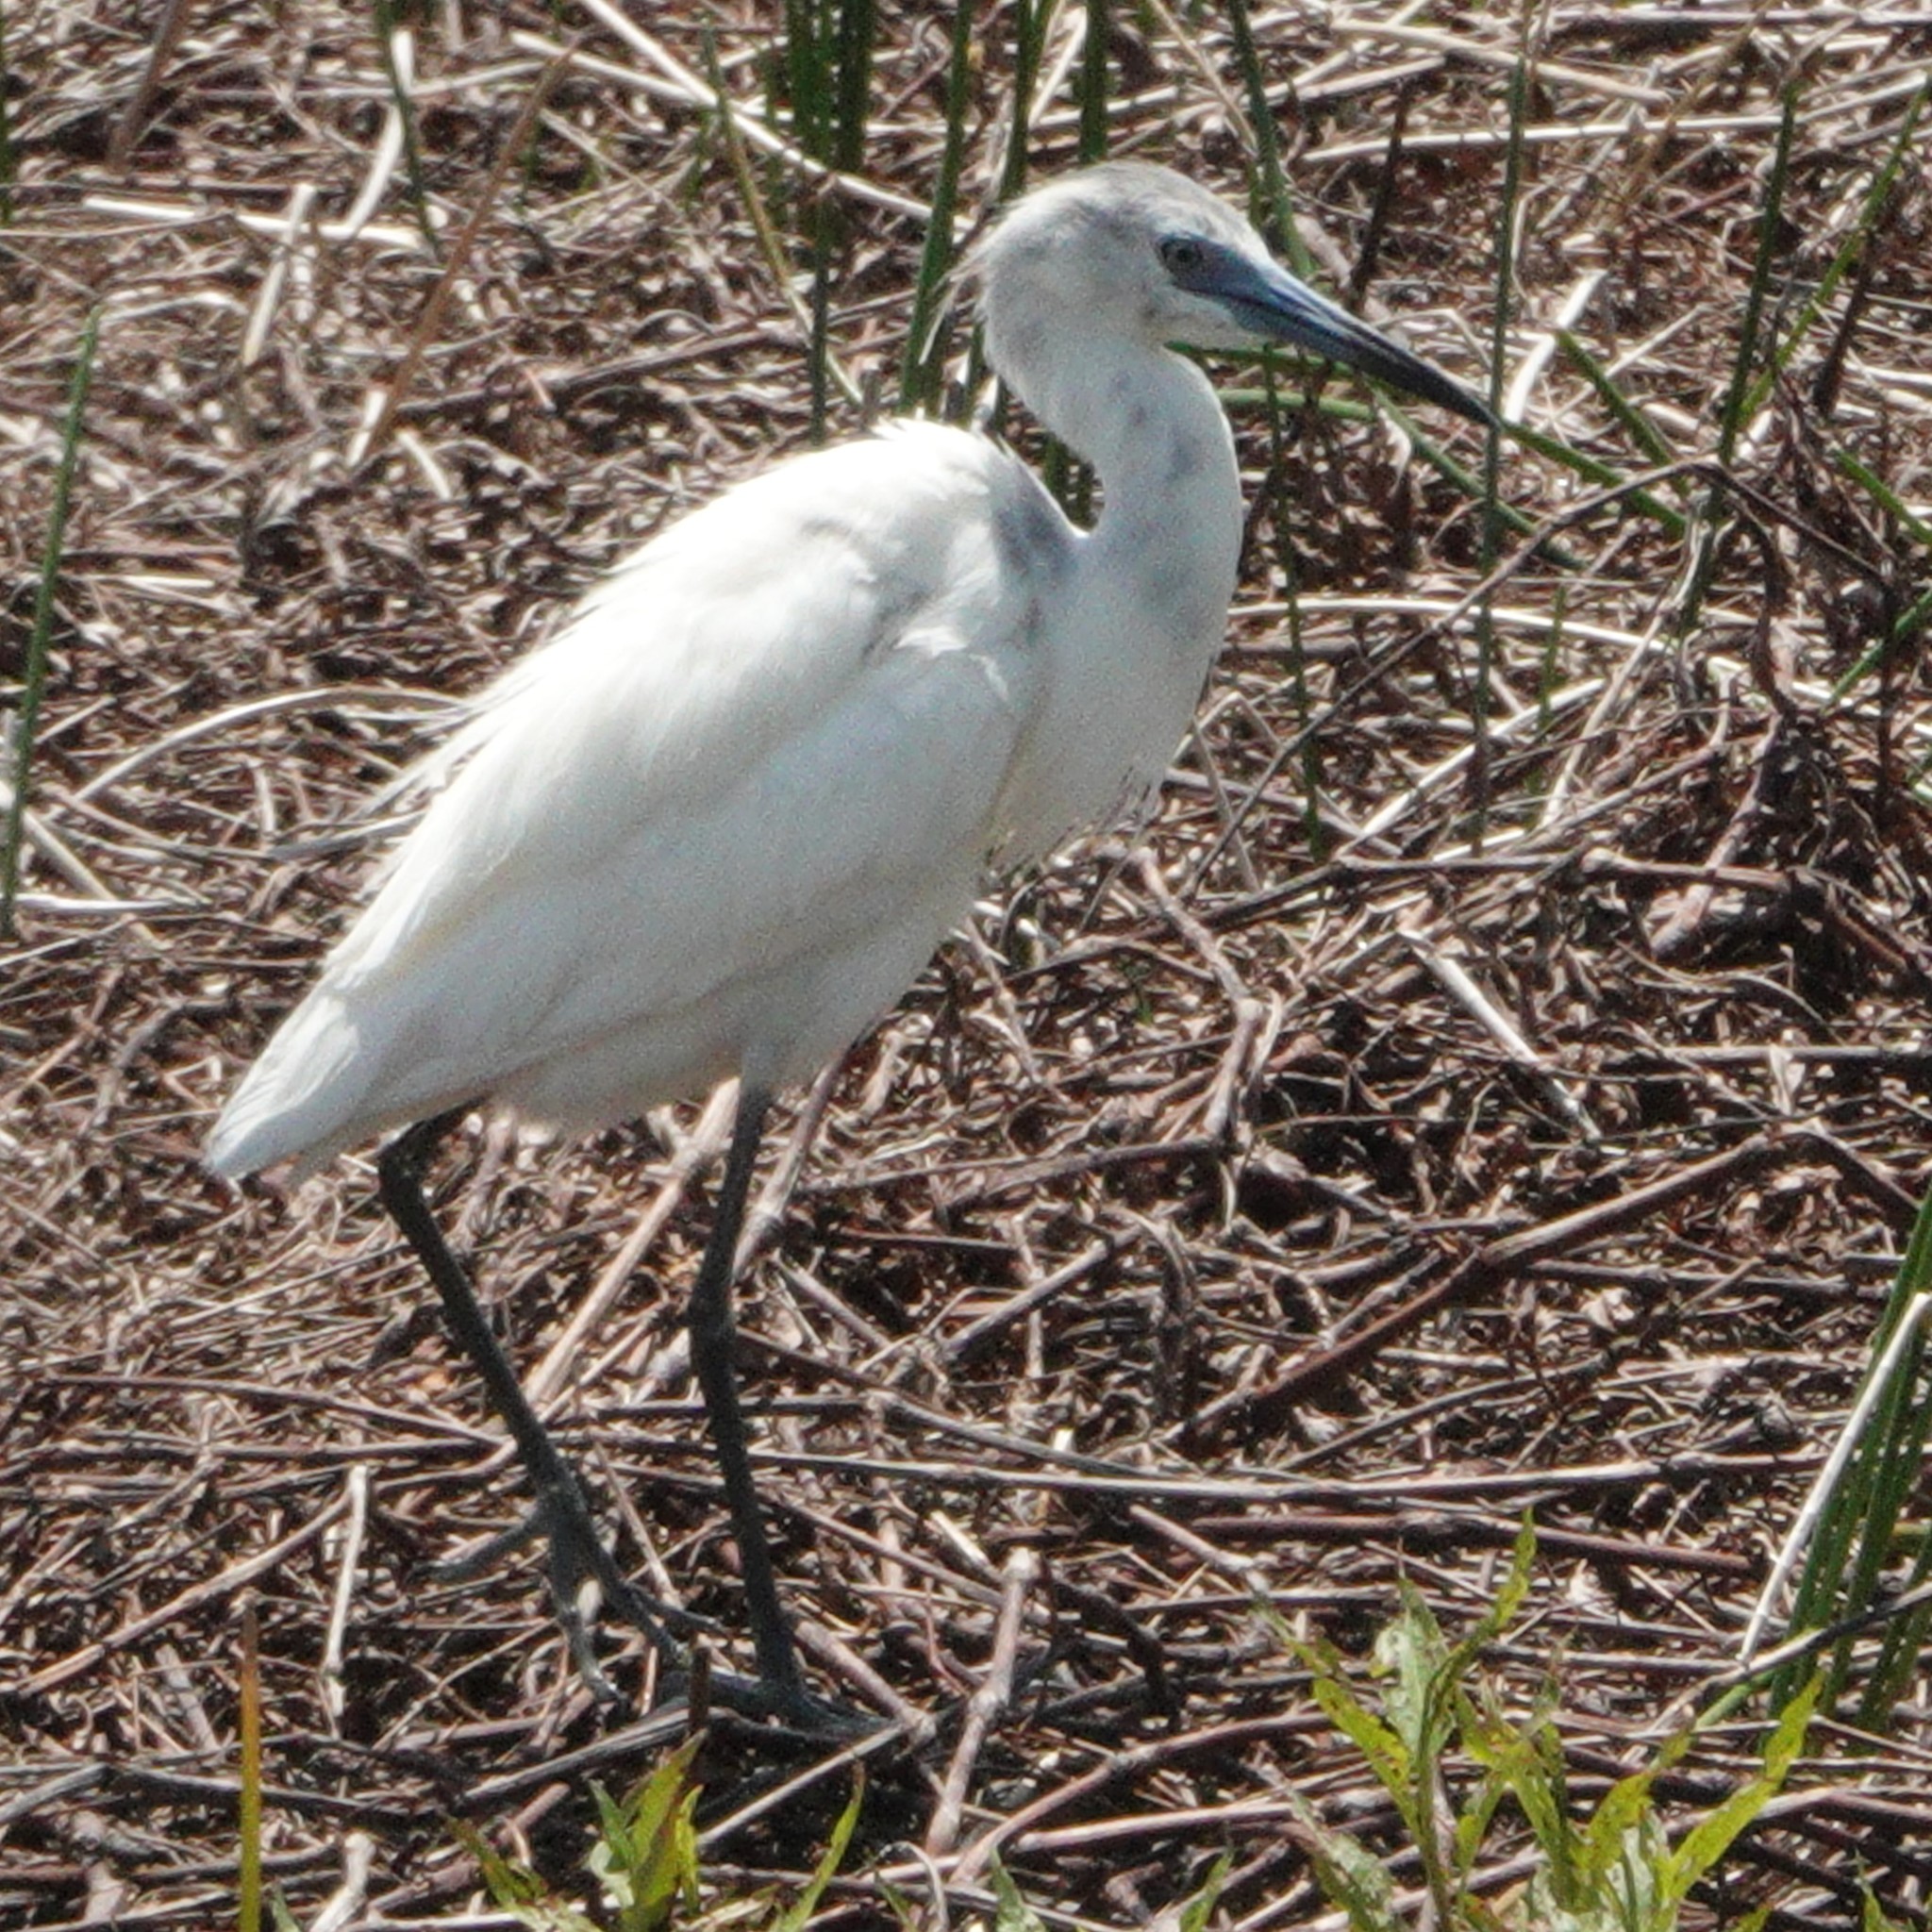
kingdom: Animalia
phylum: Chordata
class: Aves
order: Pelecaniformes
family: Ardeidae
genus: Egretta
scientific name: Egretta caerulea
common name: Little blue heron
